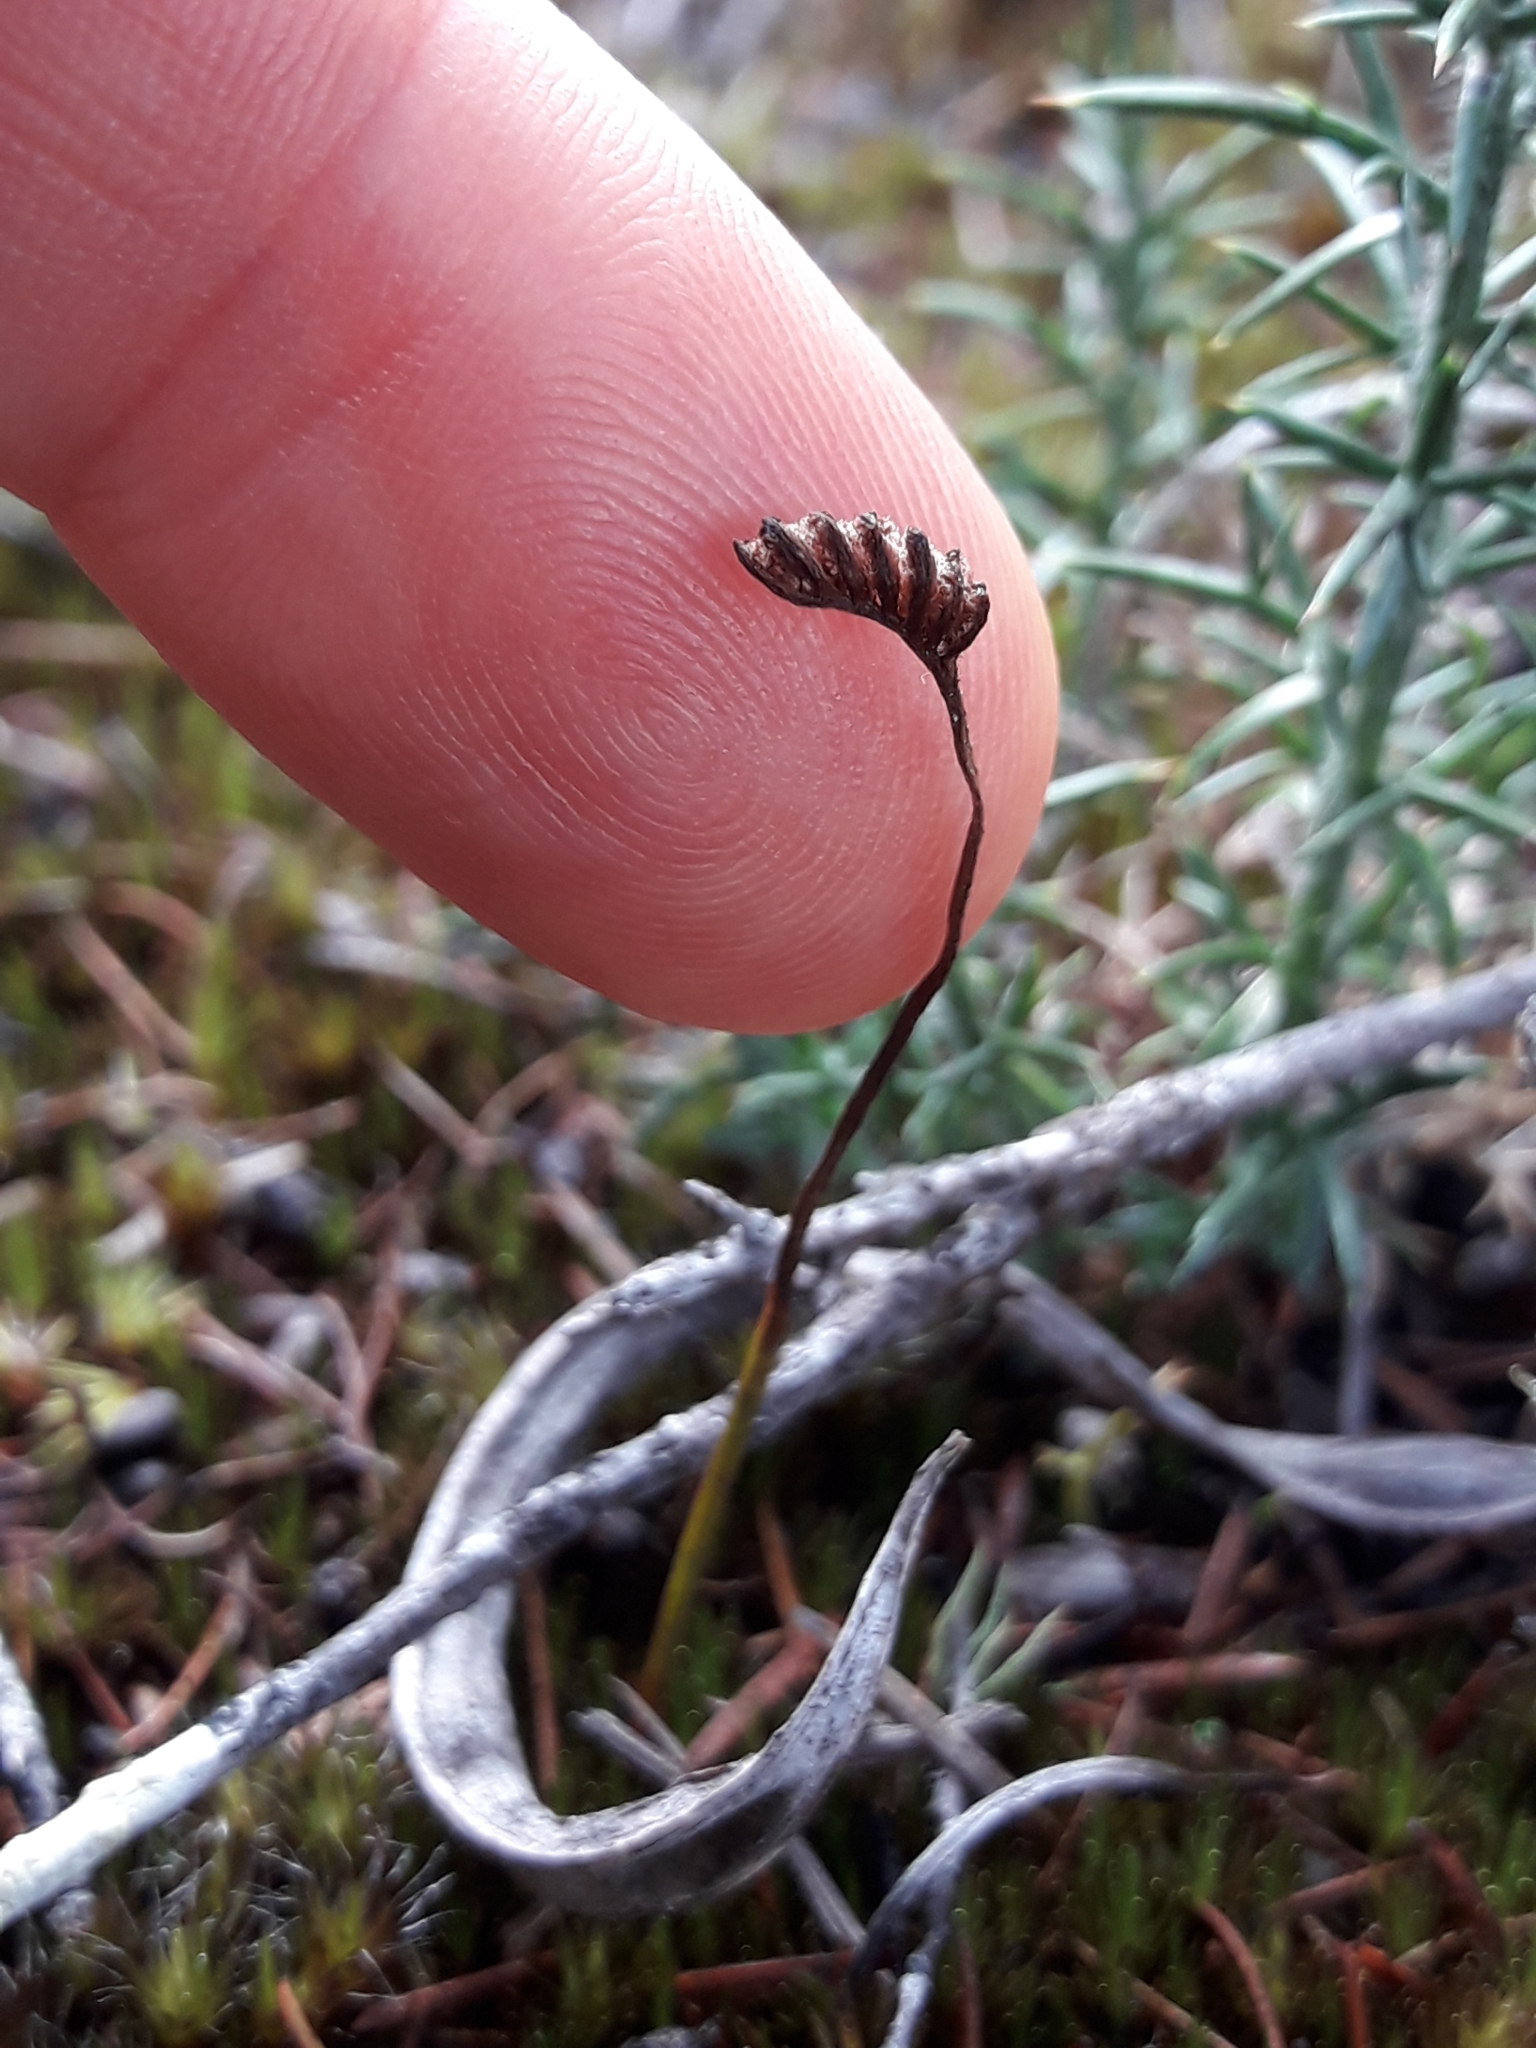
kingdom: Plantae
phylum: Tracheophyta
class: Polypodiopsida
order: Schizaeales
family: Schizaeaceae
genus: Schizaea
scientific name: Schizaea bifida
